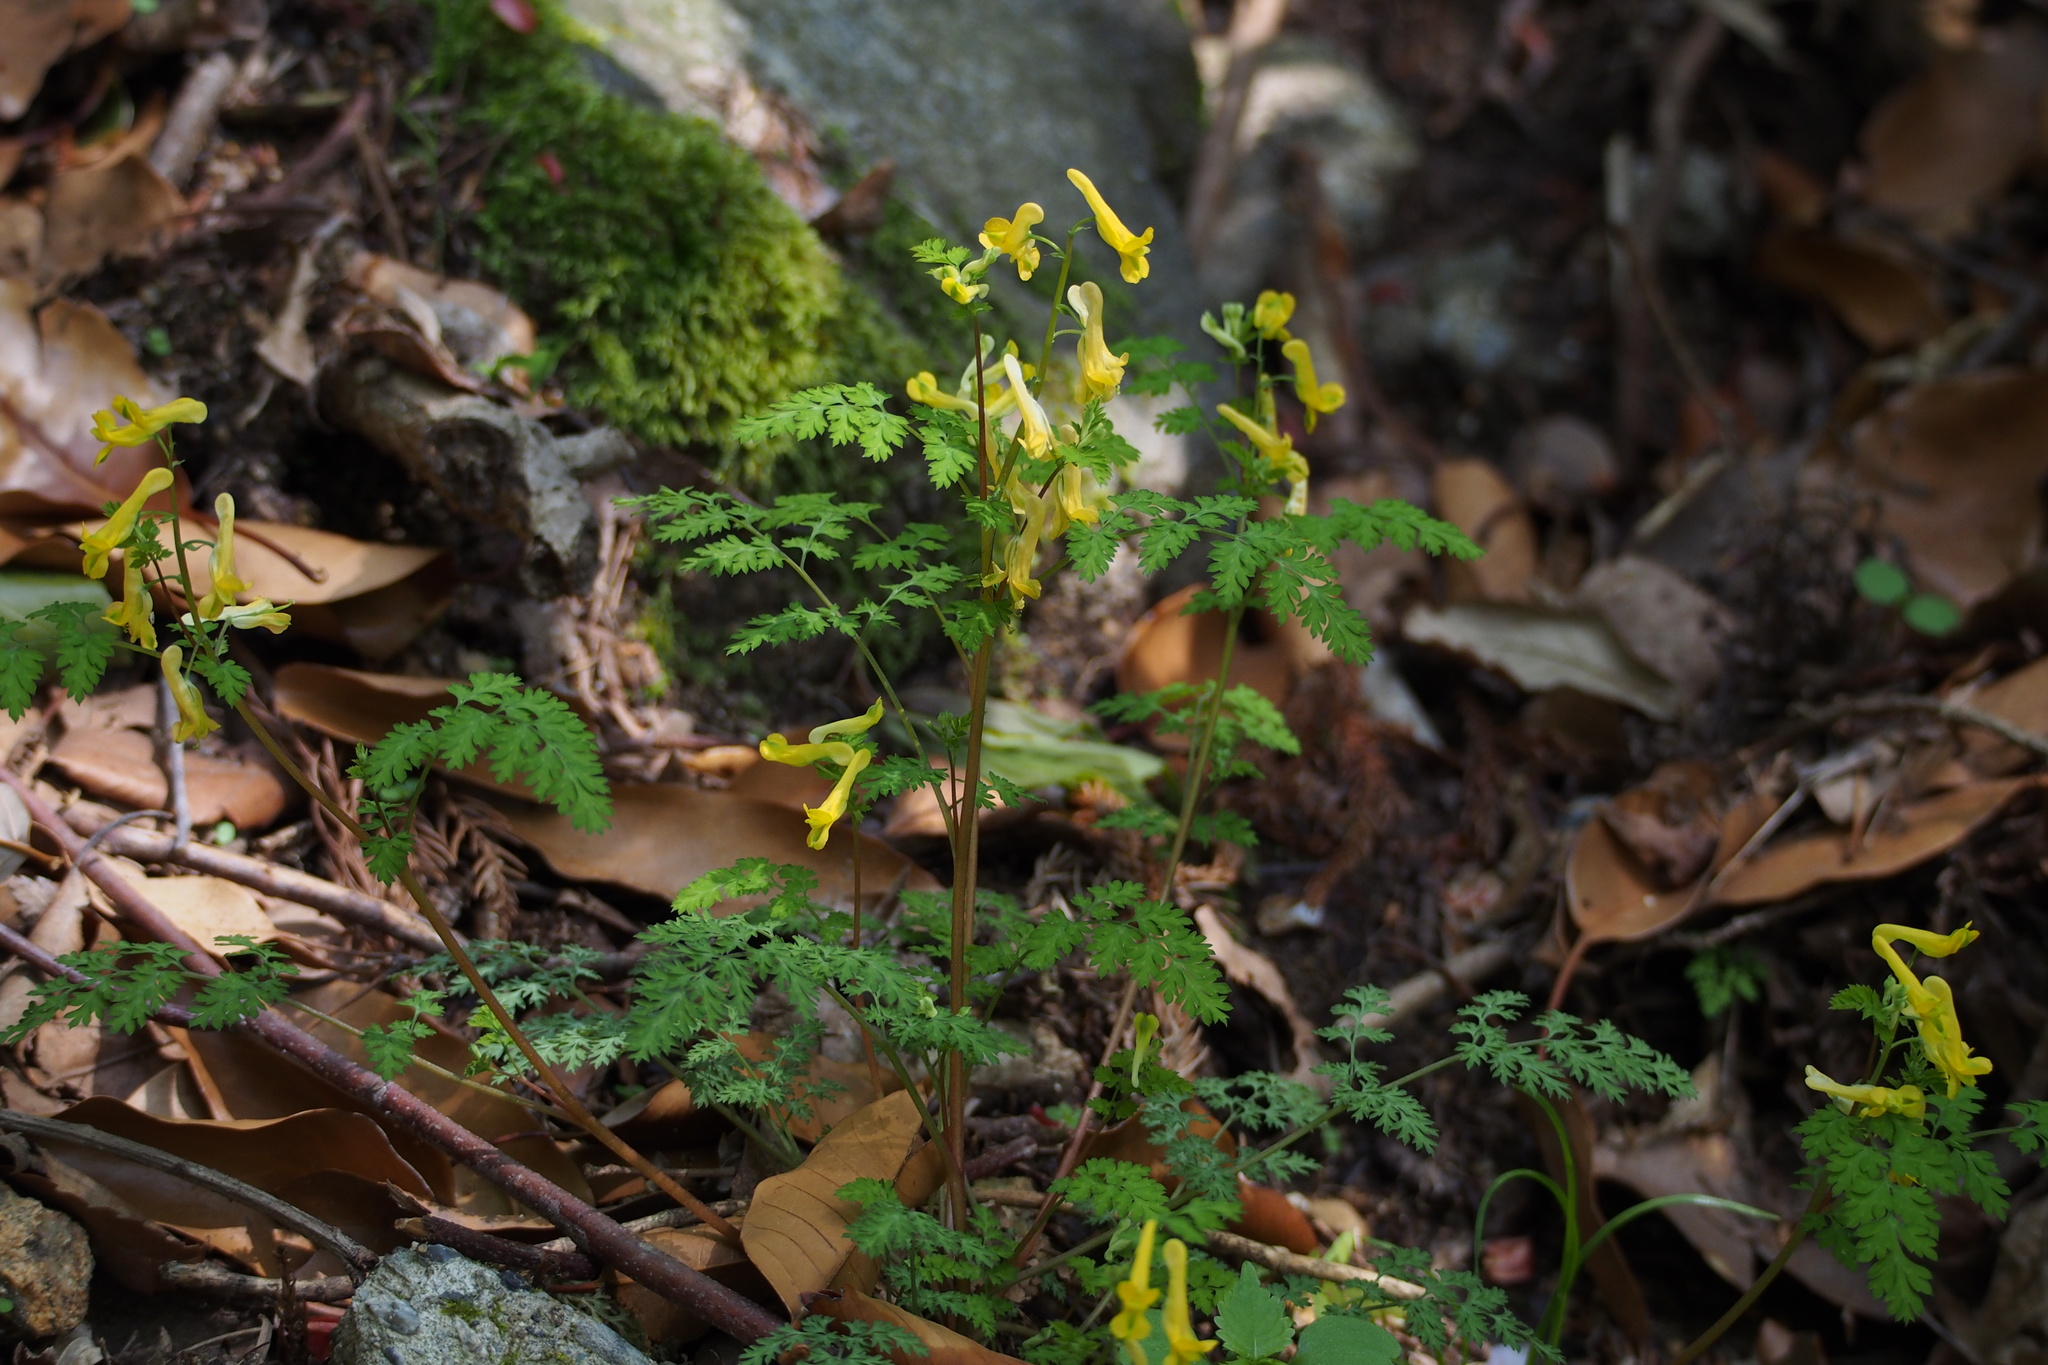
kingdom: Plantae
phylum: Tracheophyta
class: Magnoliopsida
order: Ranunculales
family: Papaveraceae
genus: Corydalis
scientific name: Corydalis pallida
